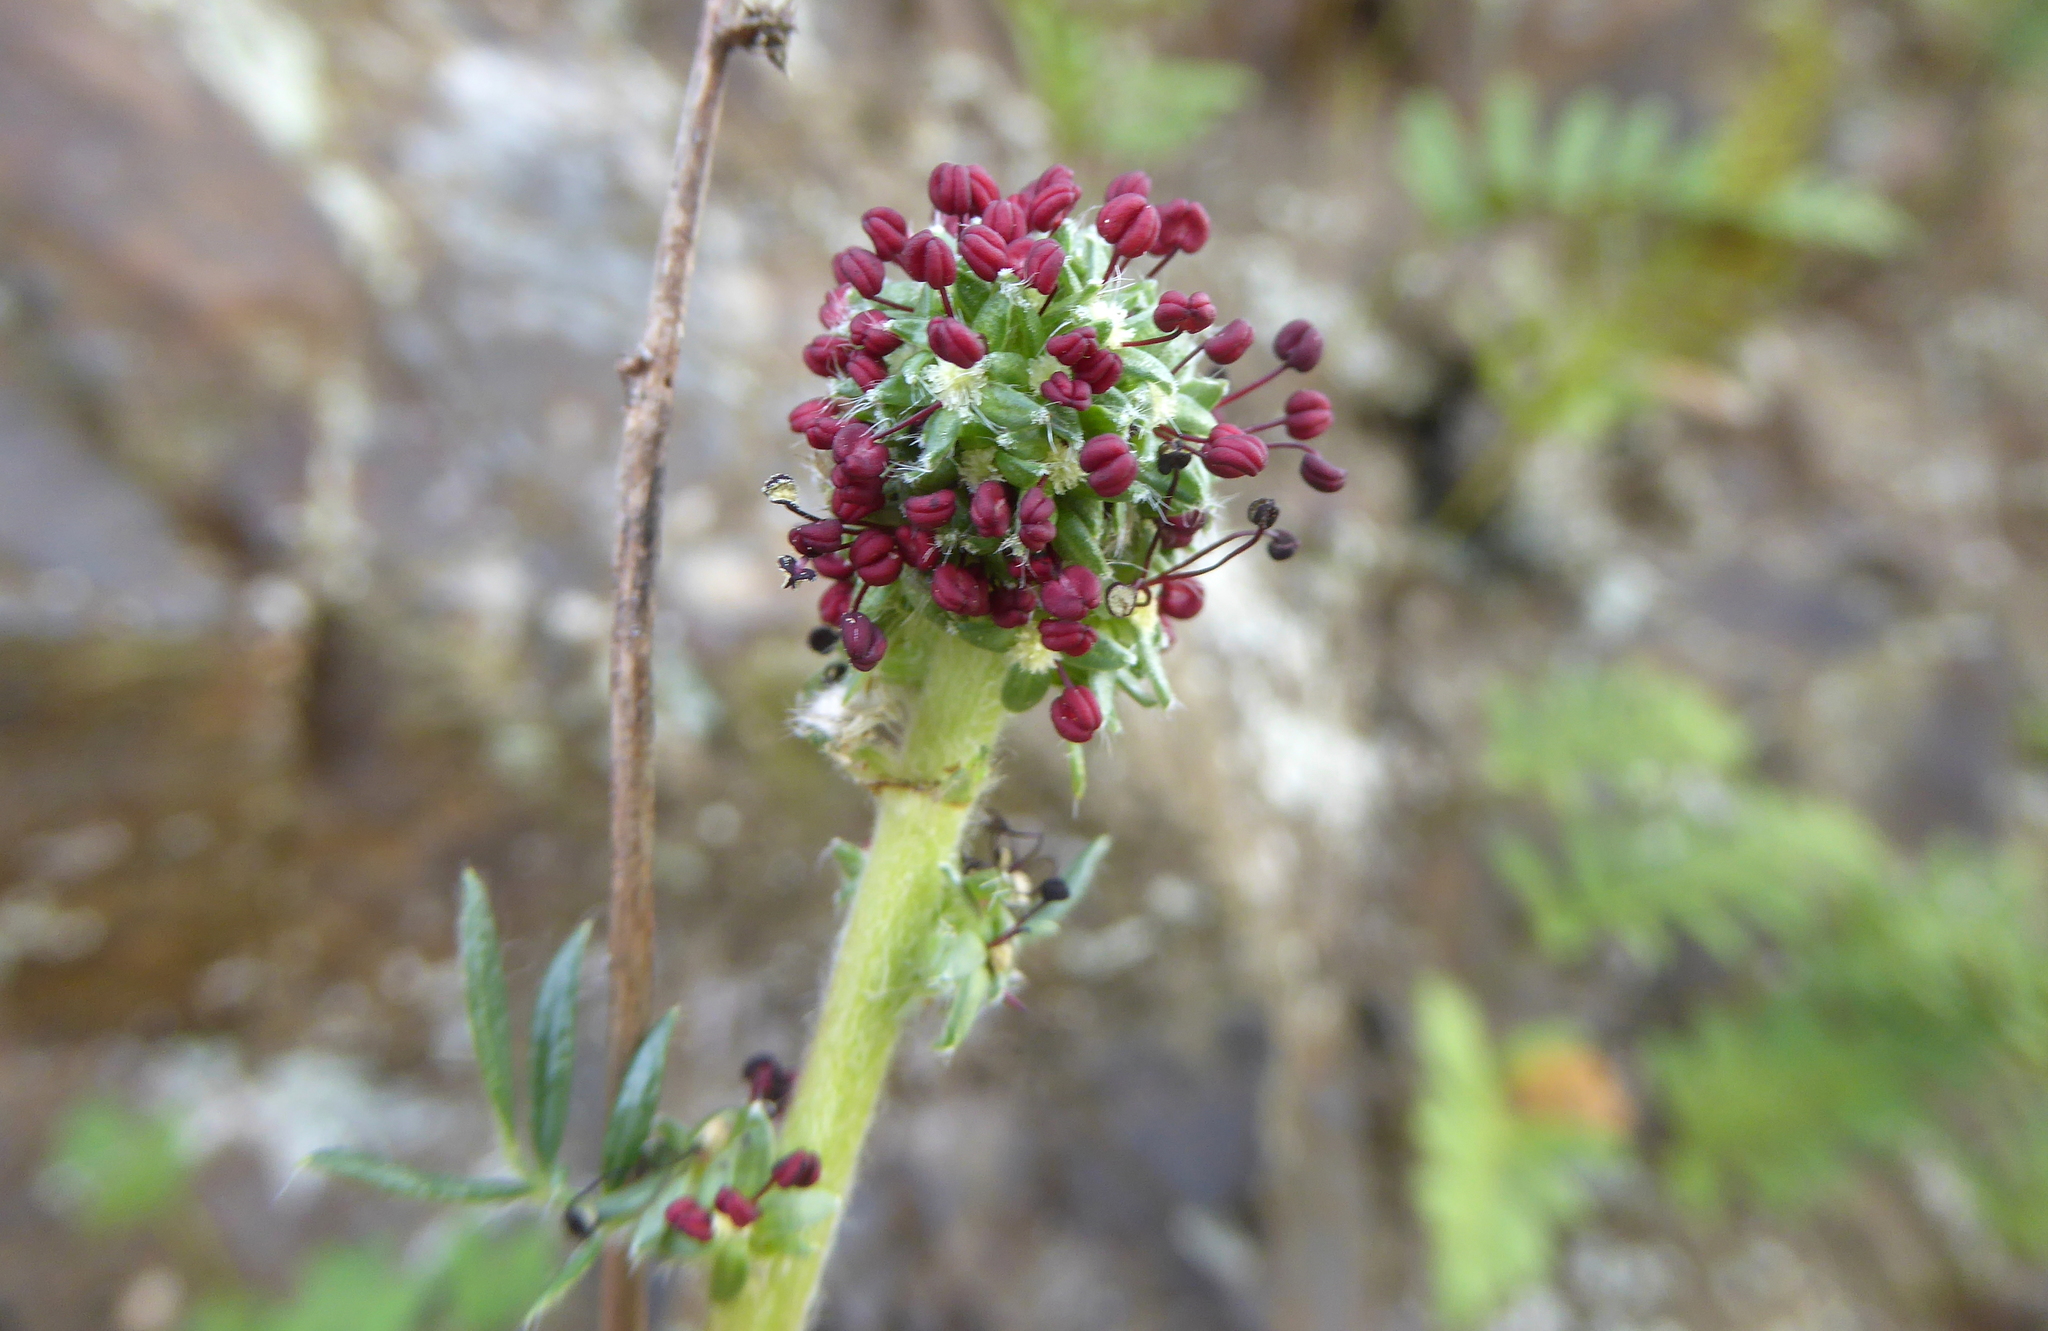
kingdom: Plantae
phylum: Tracheophyta
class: Magnoliopsida
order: Rosales
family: Rosaceae
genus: Acaena
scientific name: Acaena pinnatifida
